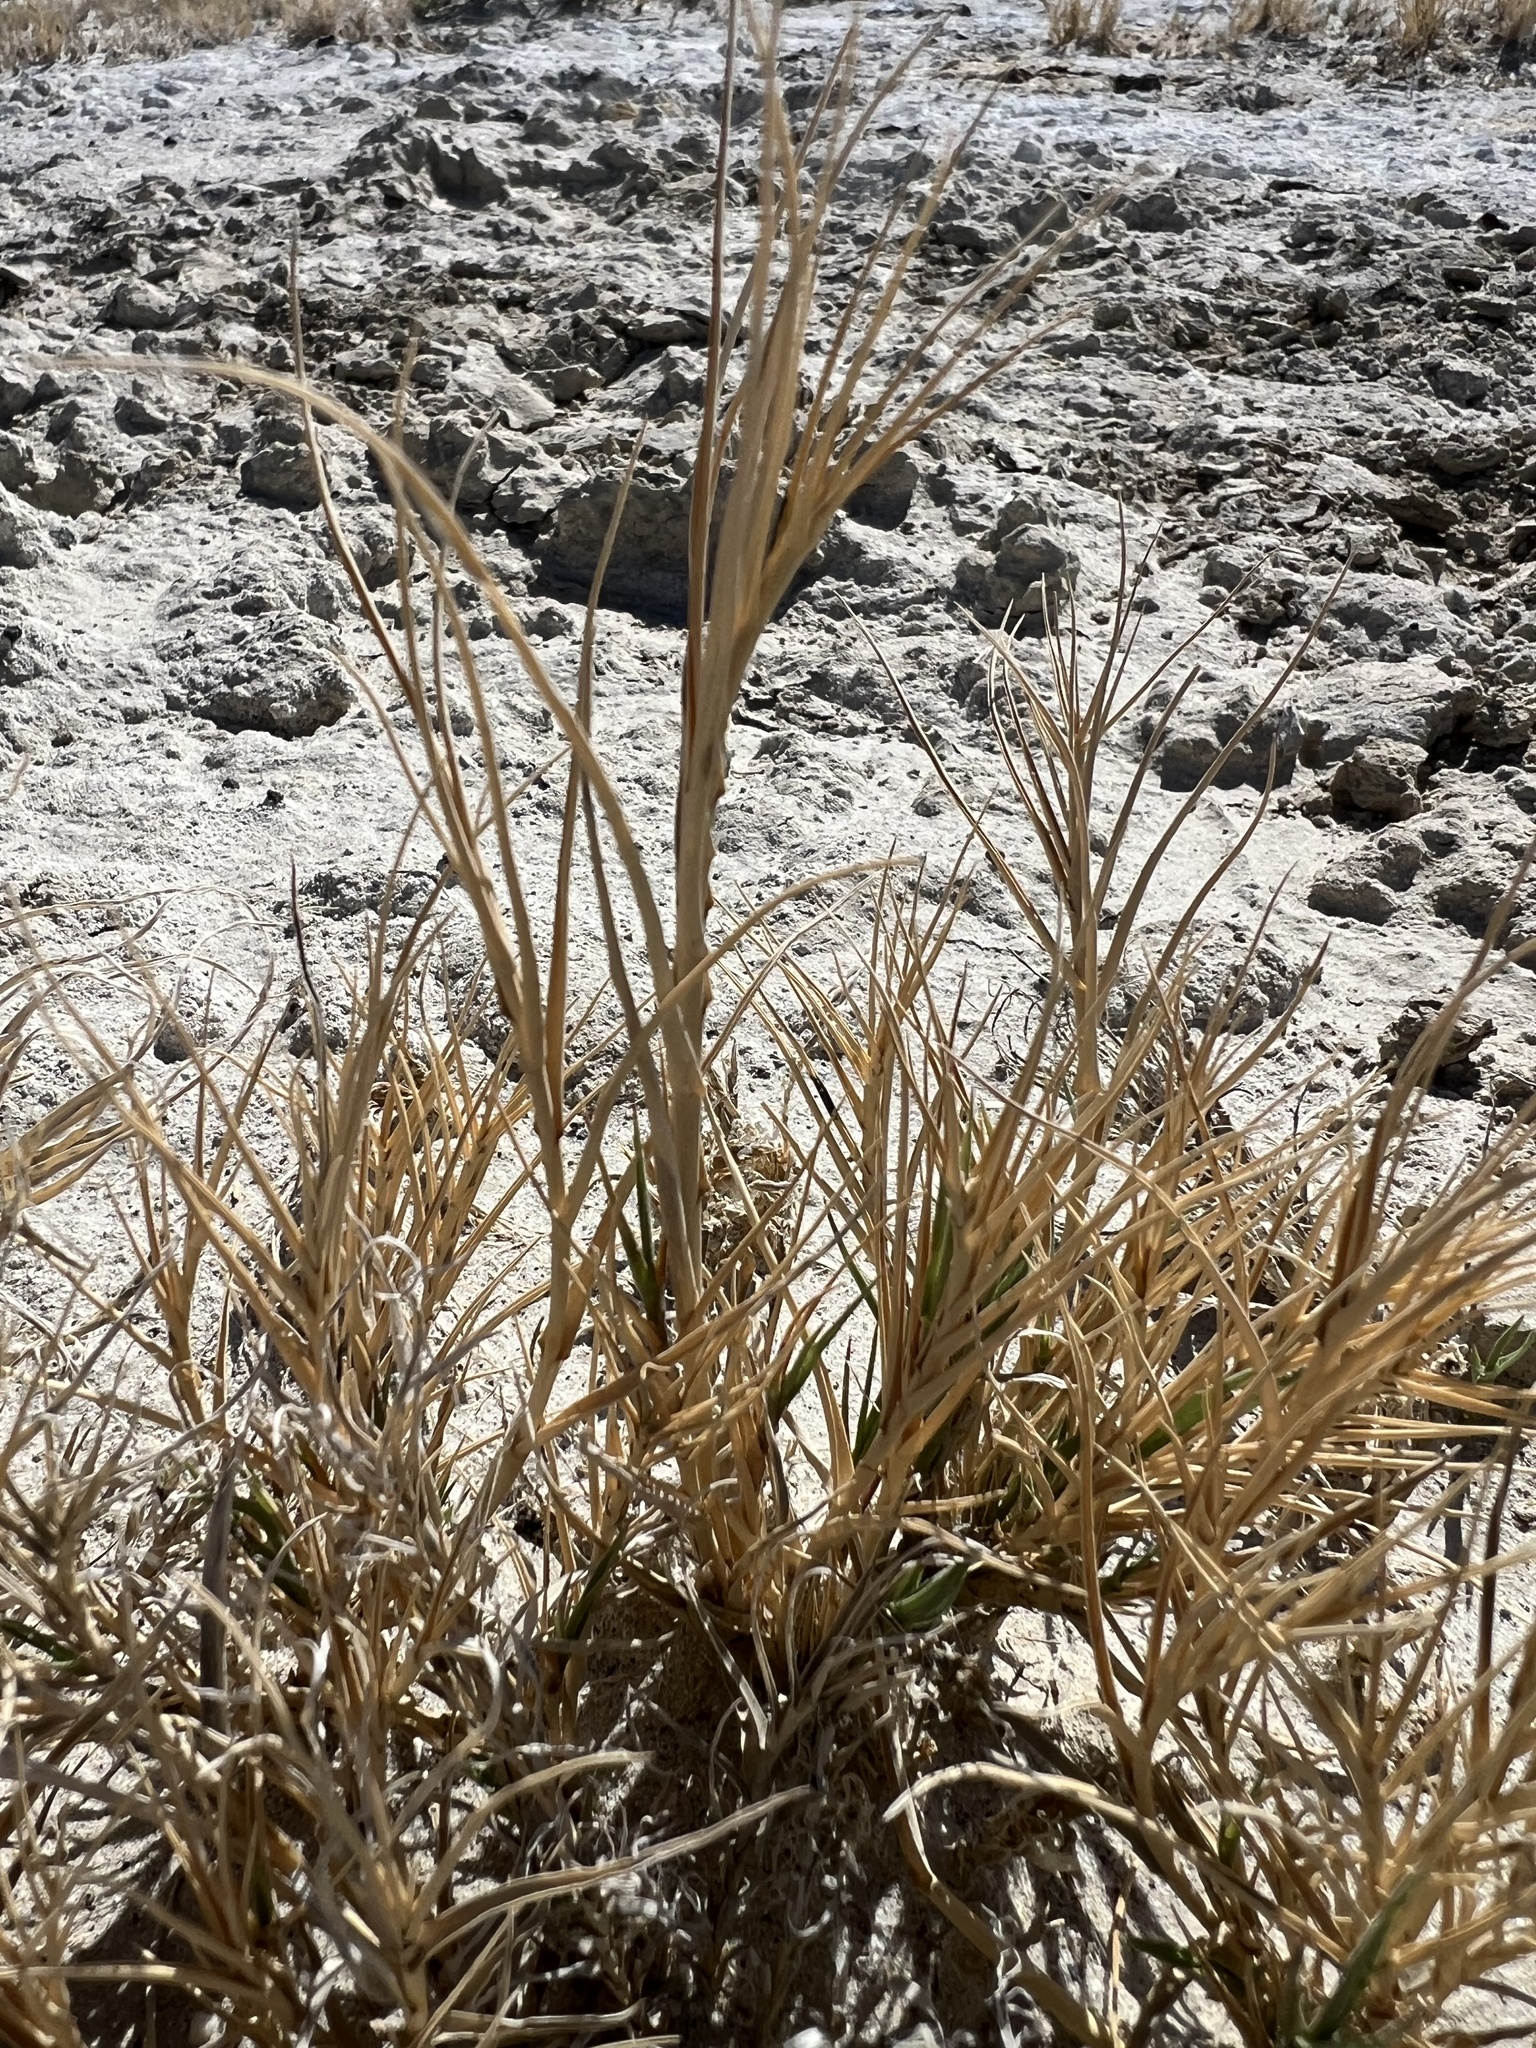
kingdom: Plantae
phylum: Tracheophyta
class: Liliopsida
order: Poales
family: Poaceae
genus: Distichlis
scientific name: Distichlis spicata
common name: Saltgrass
